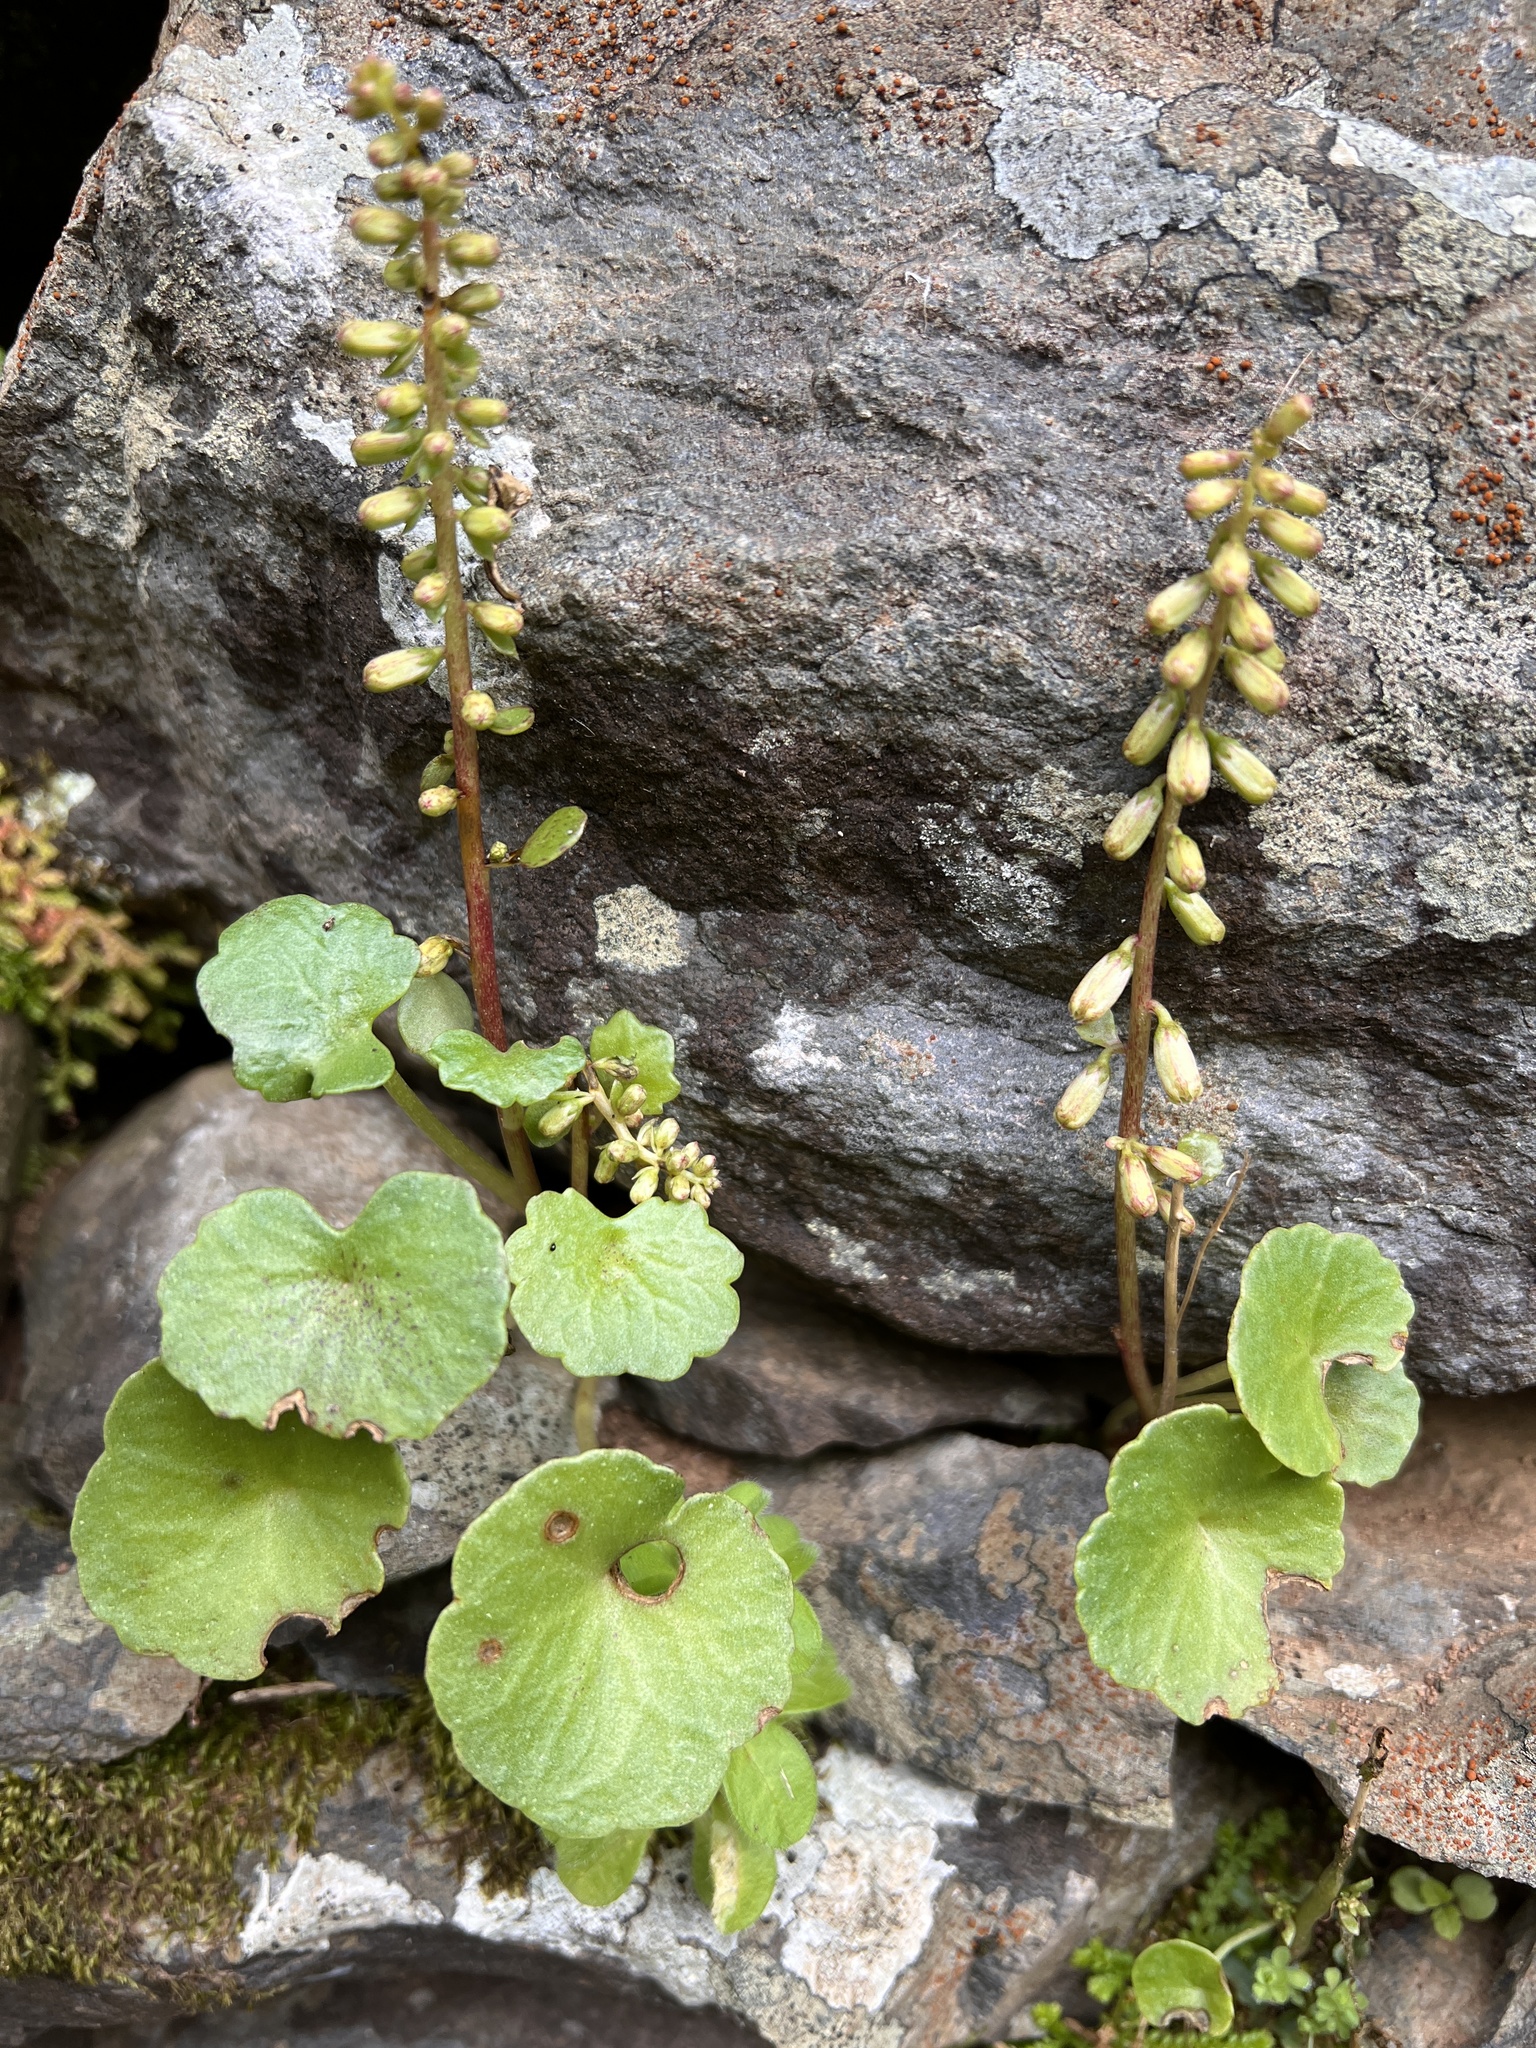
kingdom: Plantae
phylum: Tracheophyta
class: Magnoliopsida
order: Saxifragales
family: Crassulaceae
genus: Umbilicus
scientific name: Umbilicus rupestris
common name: Navelwort
